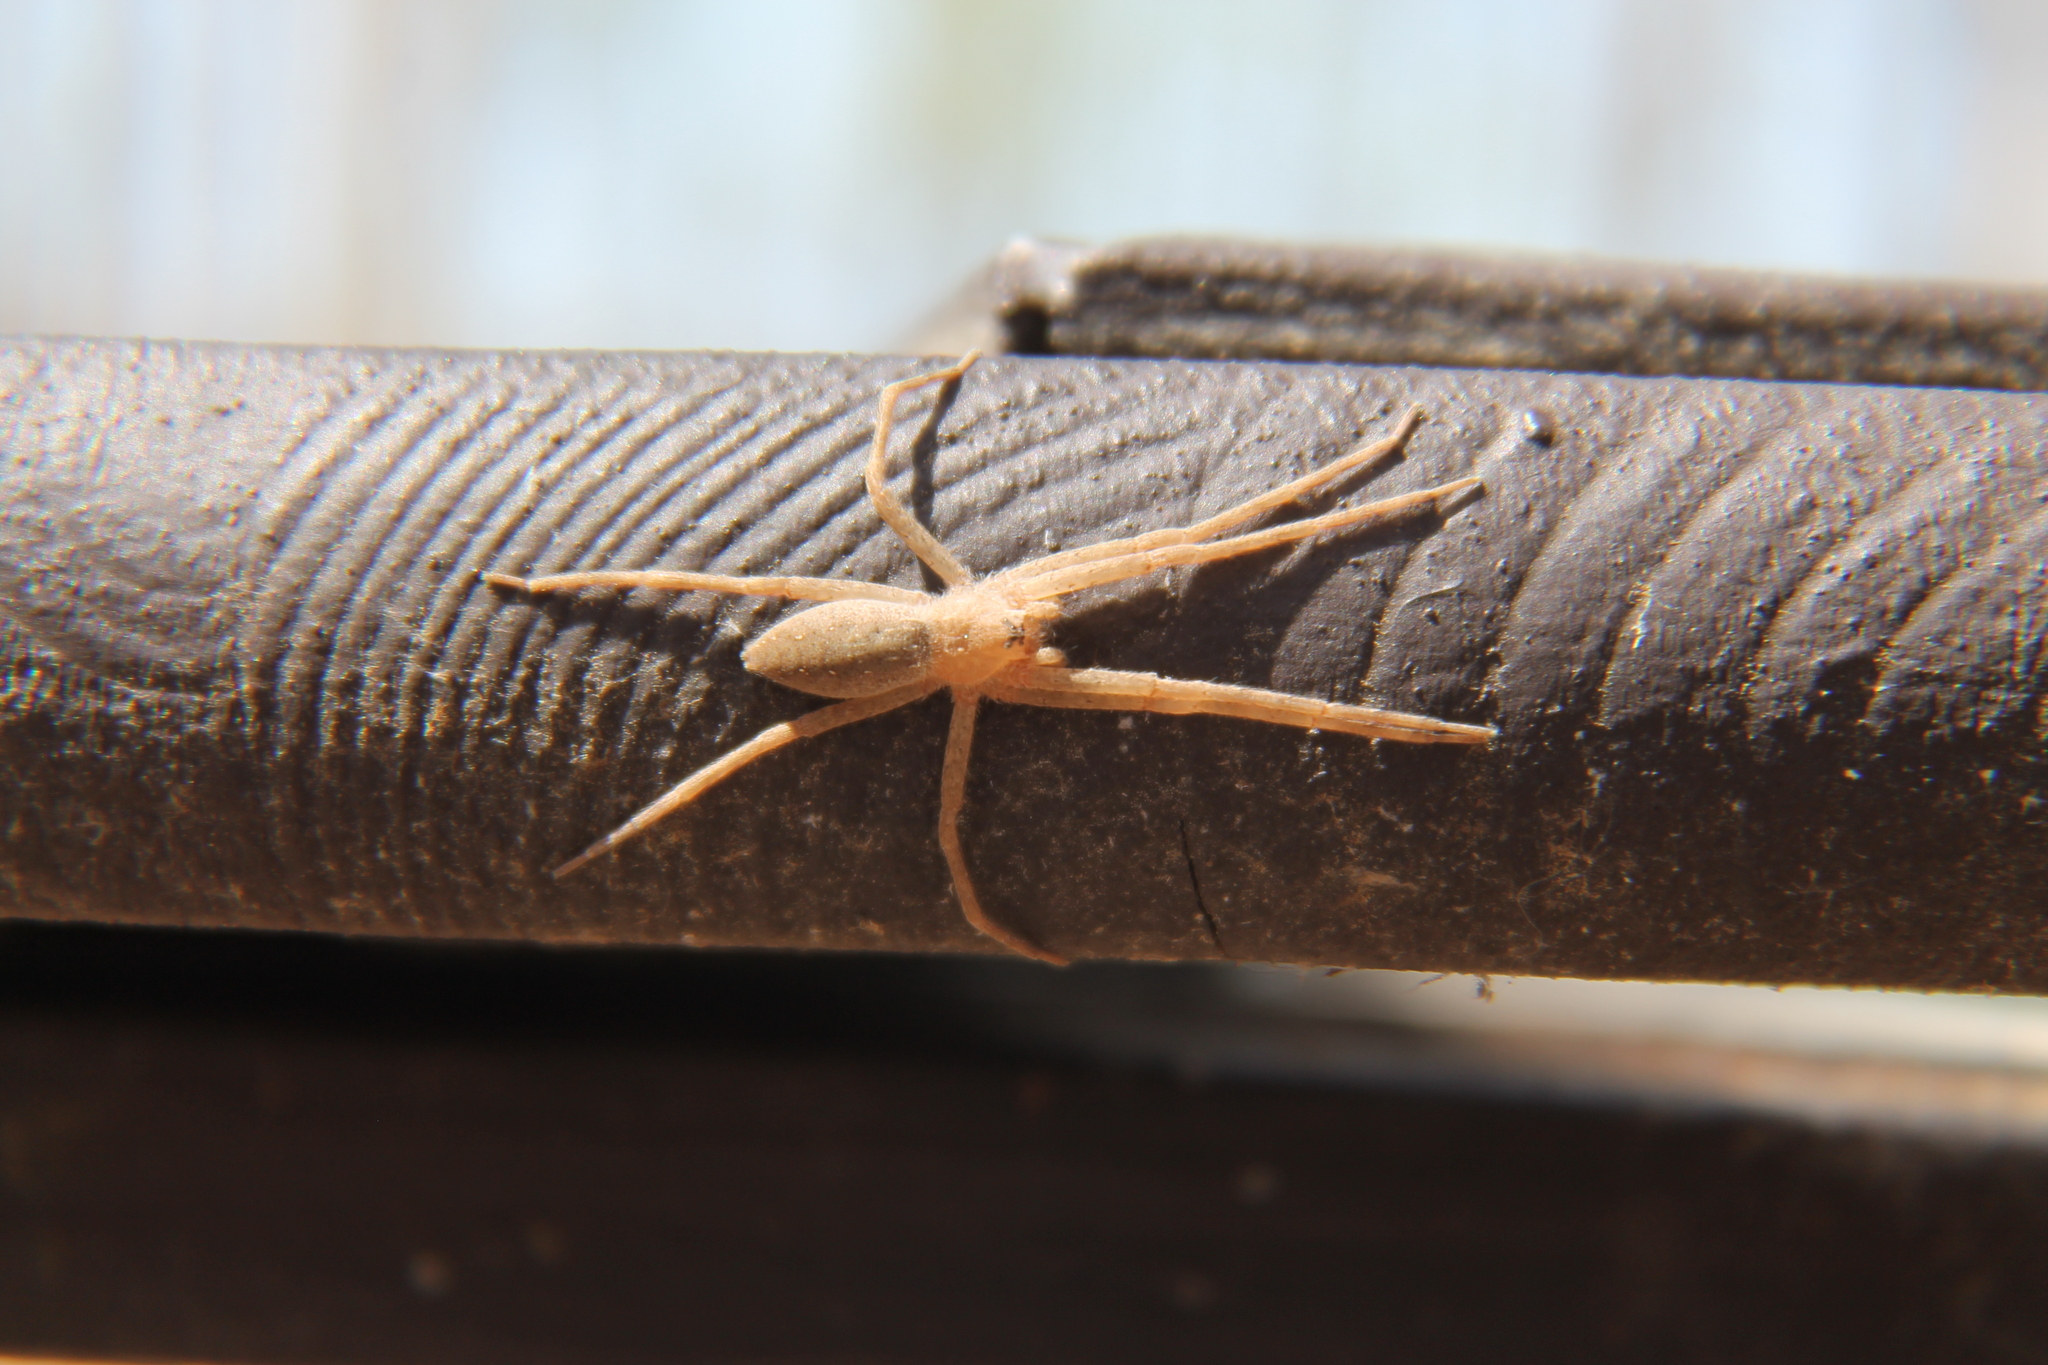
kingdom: Animalia
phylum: Arthropoda
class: Arachnida
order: Araneae
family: Pisauridae
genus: Pisaurina
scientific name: Pisaurina mira
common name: American nursery web spider
